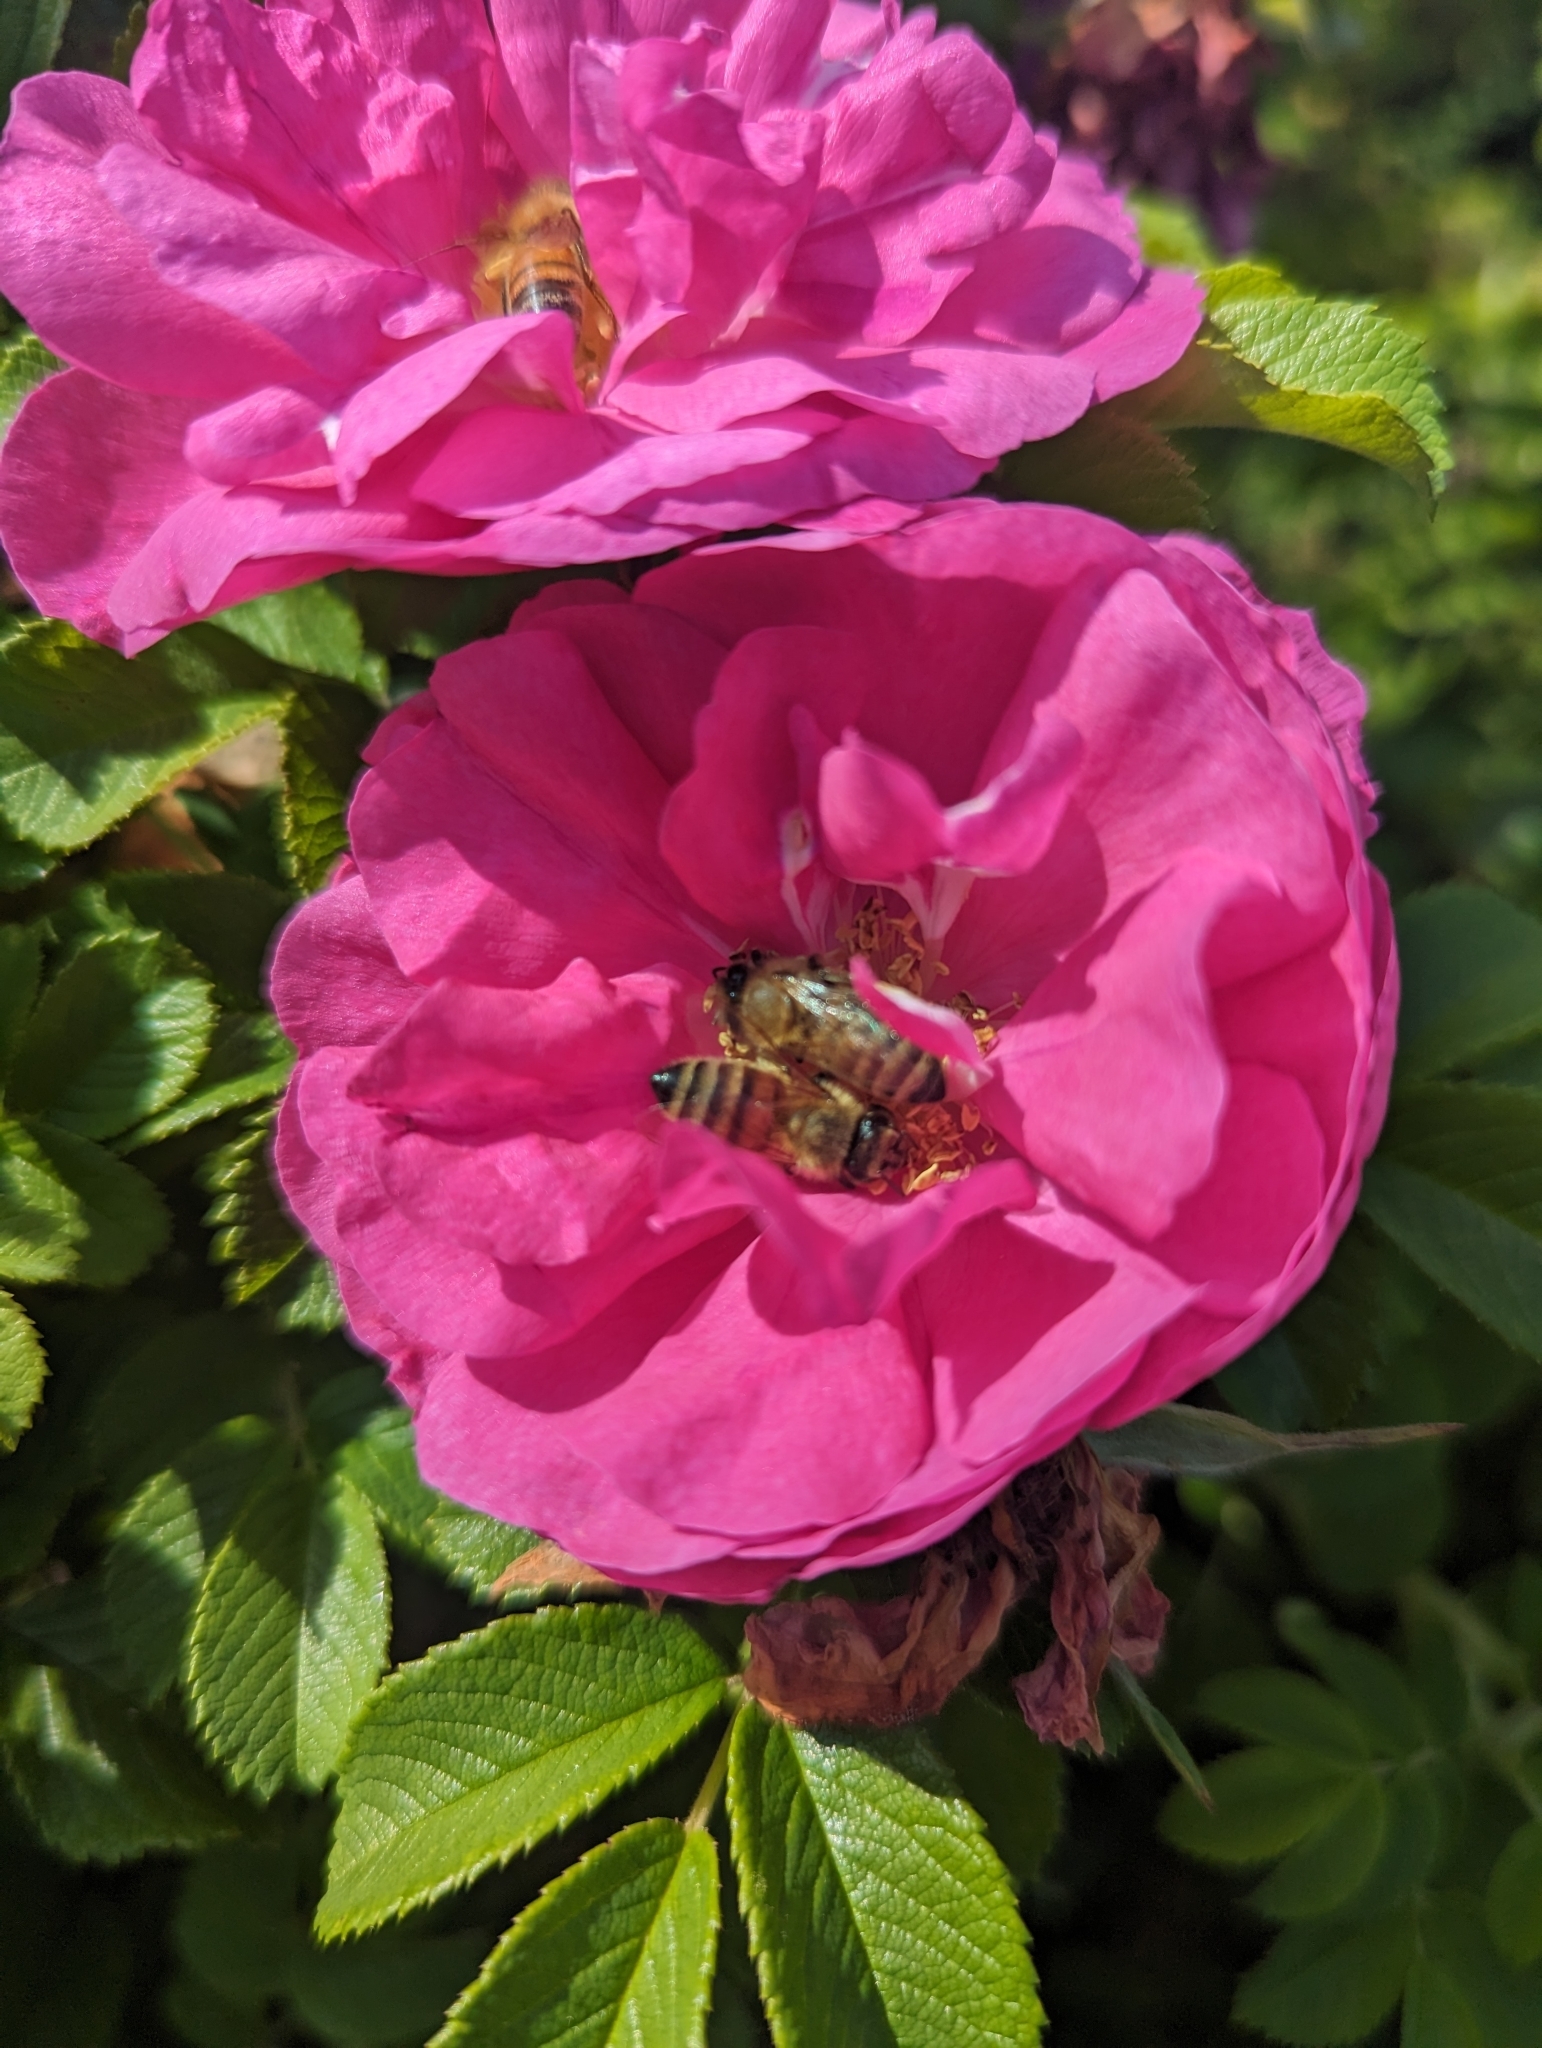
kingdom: Animalia
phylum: Arthropoda
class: Insecta
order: Hymenoptera
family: Apidae
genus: Apis
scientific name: Apis mellifera
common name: Honey bee
